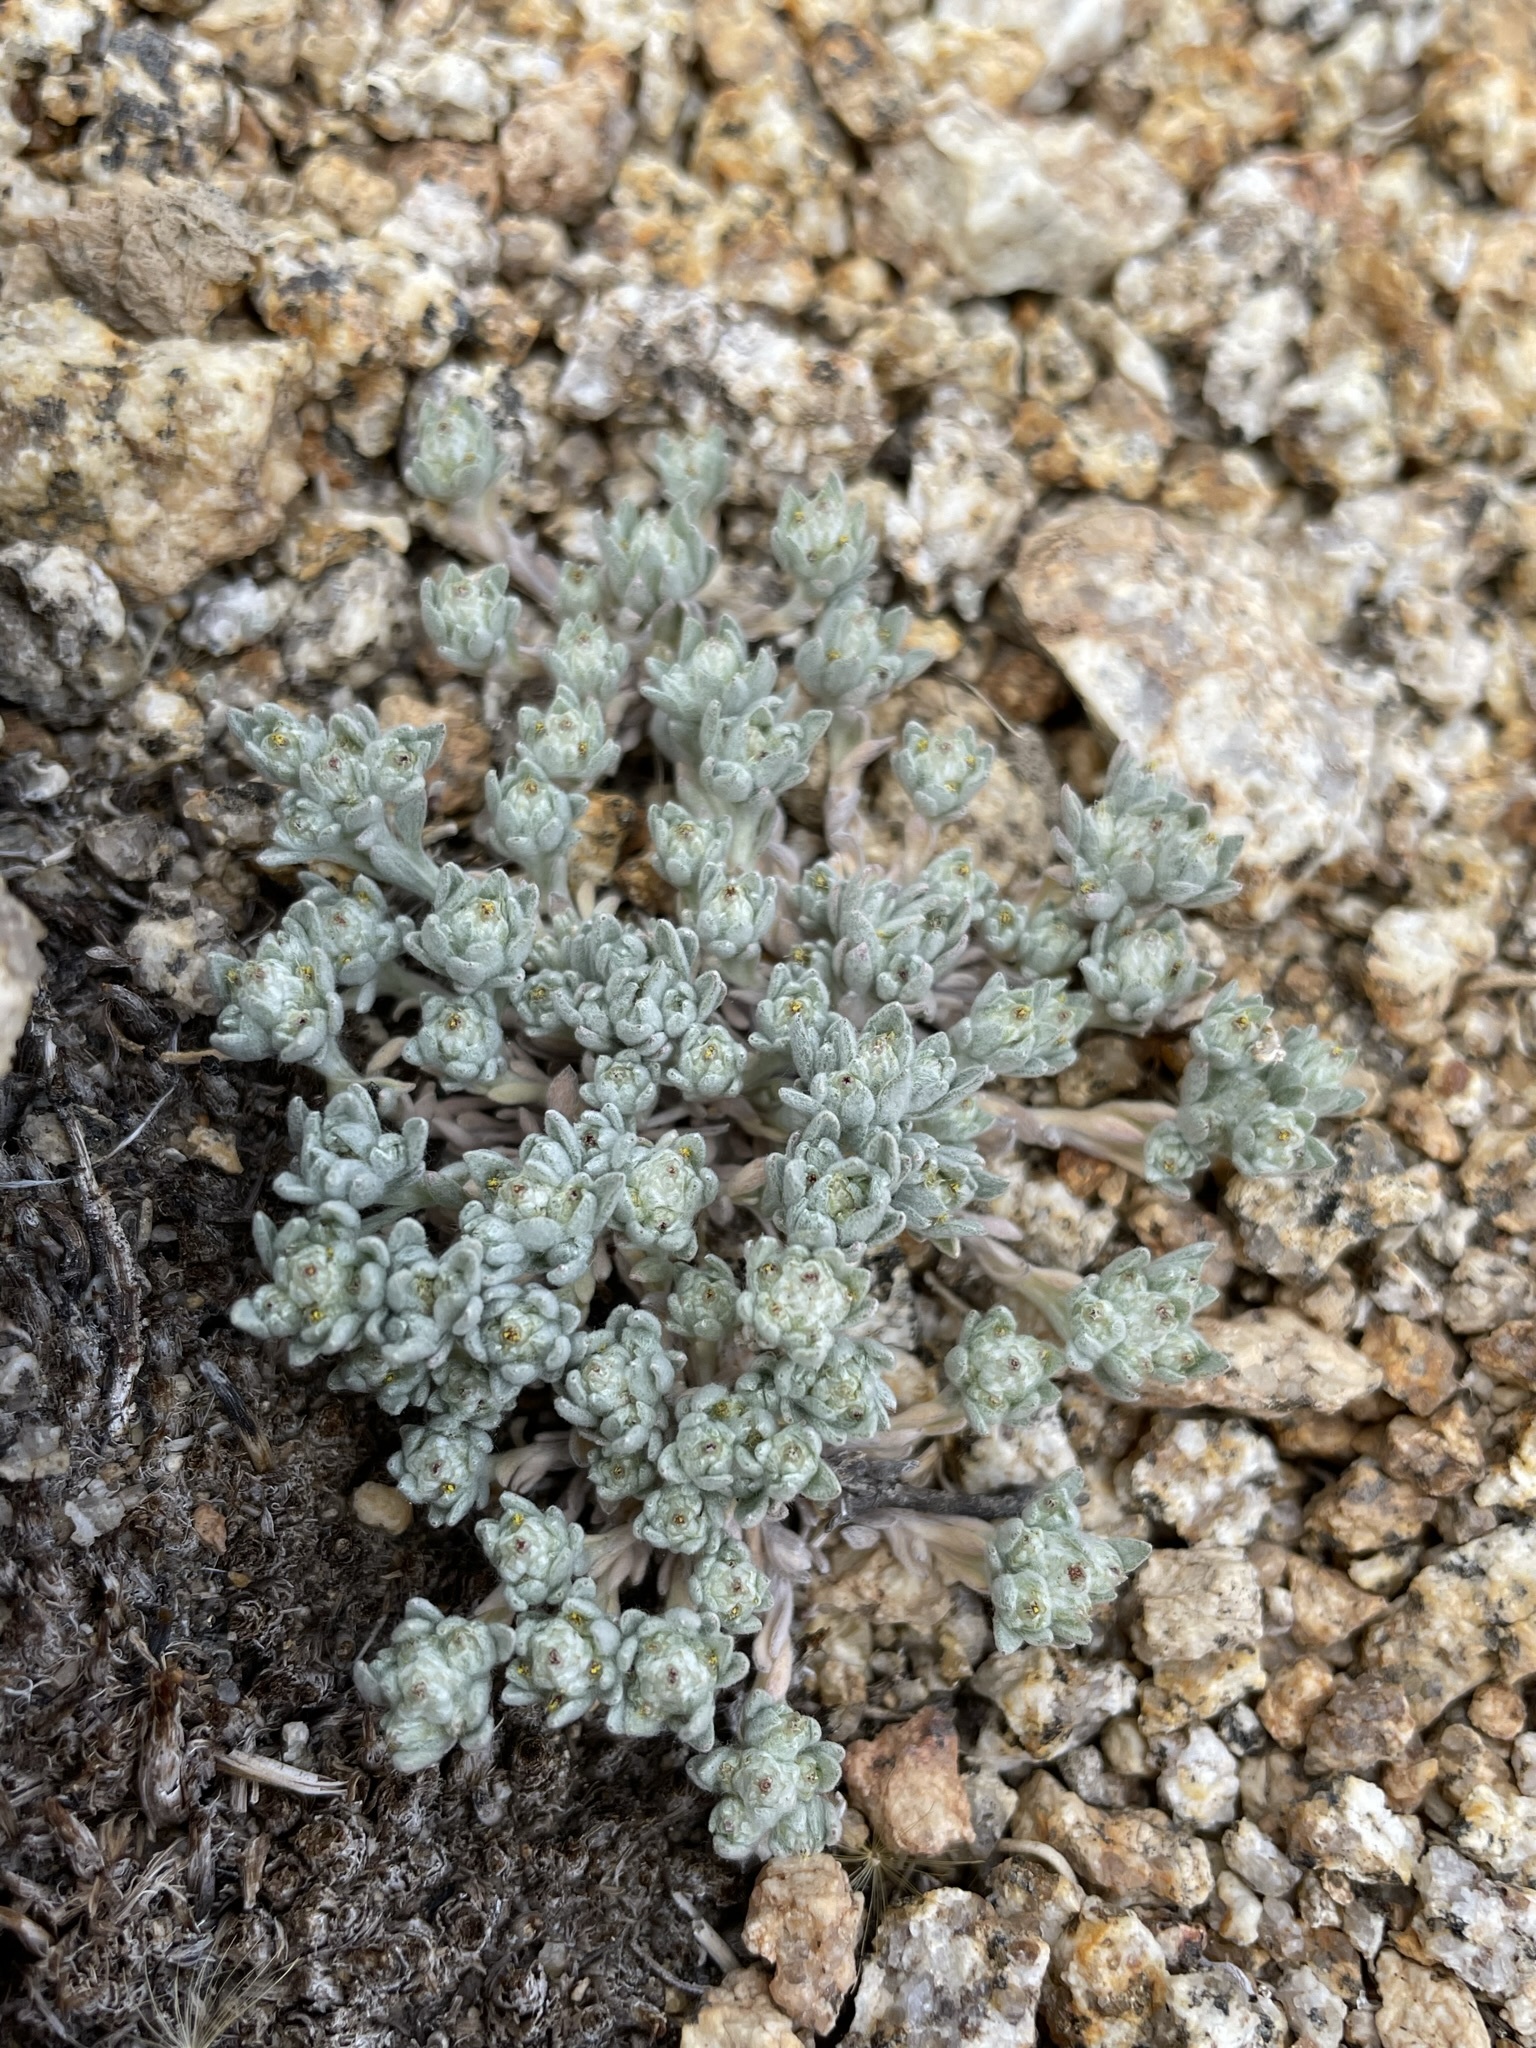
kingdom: Plantae
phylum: Tracheophyta
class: Magnoliopsida
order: Asterales
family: Asteraceae
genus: Logfia
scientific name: Logfia depressa
